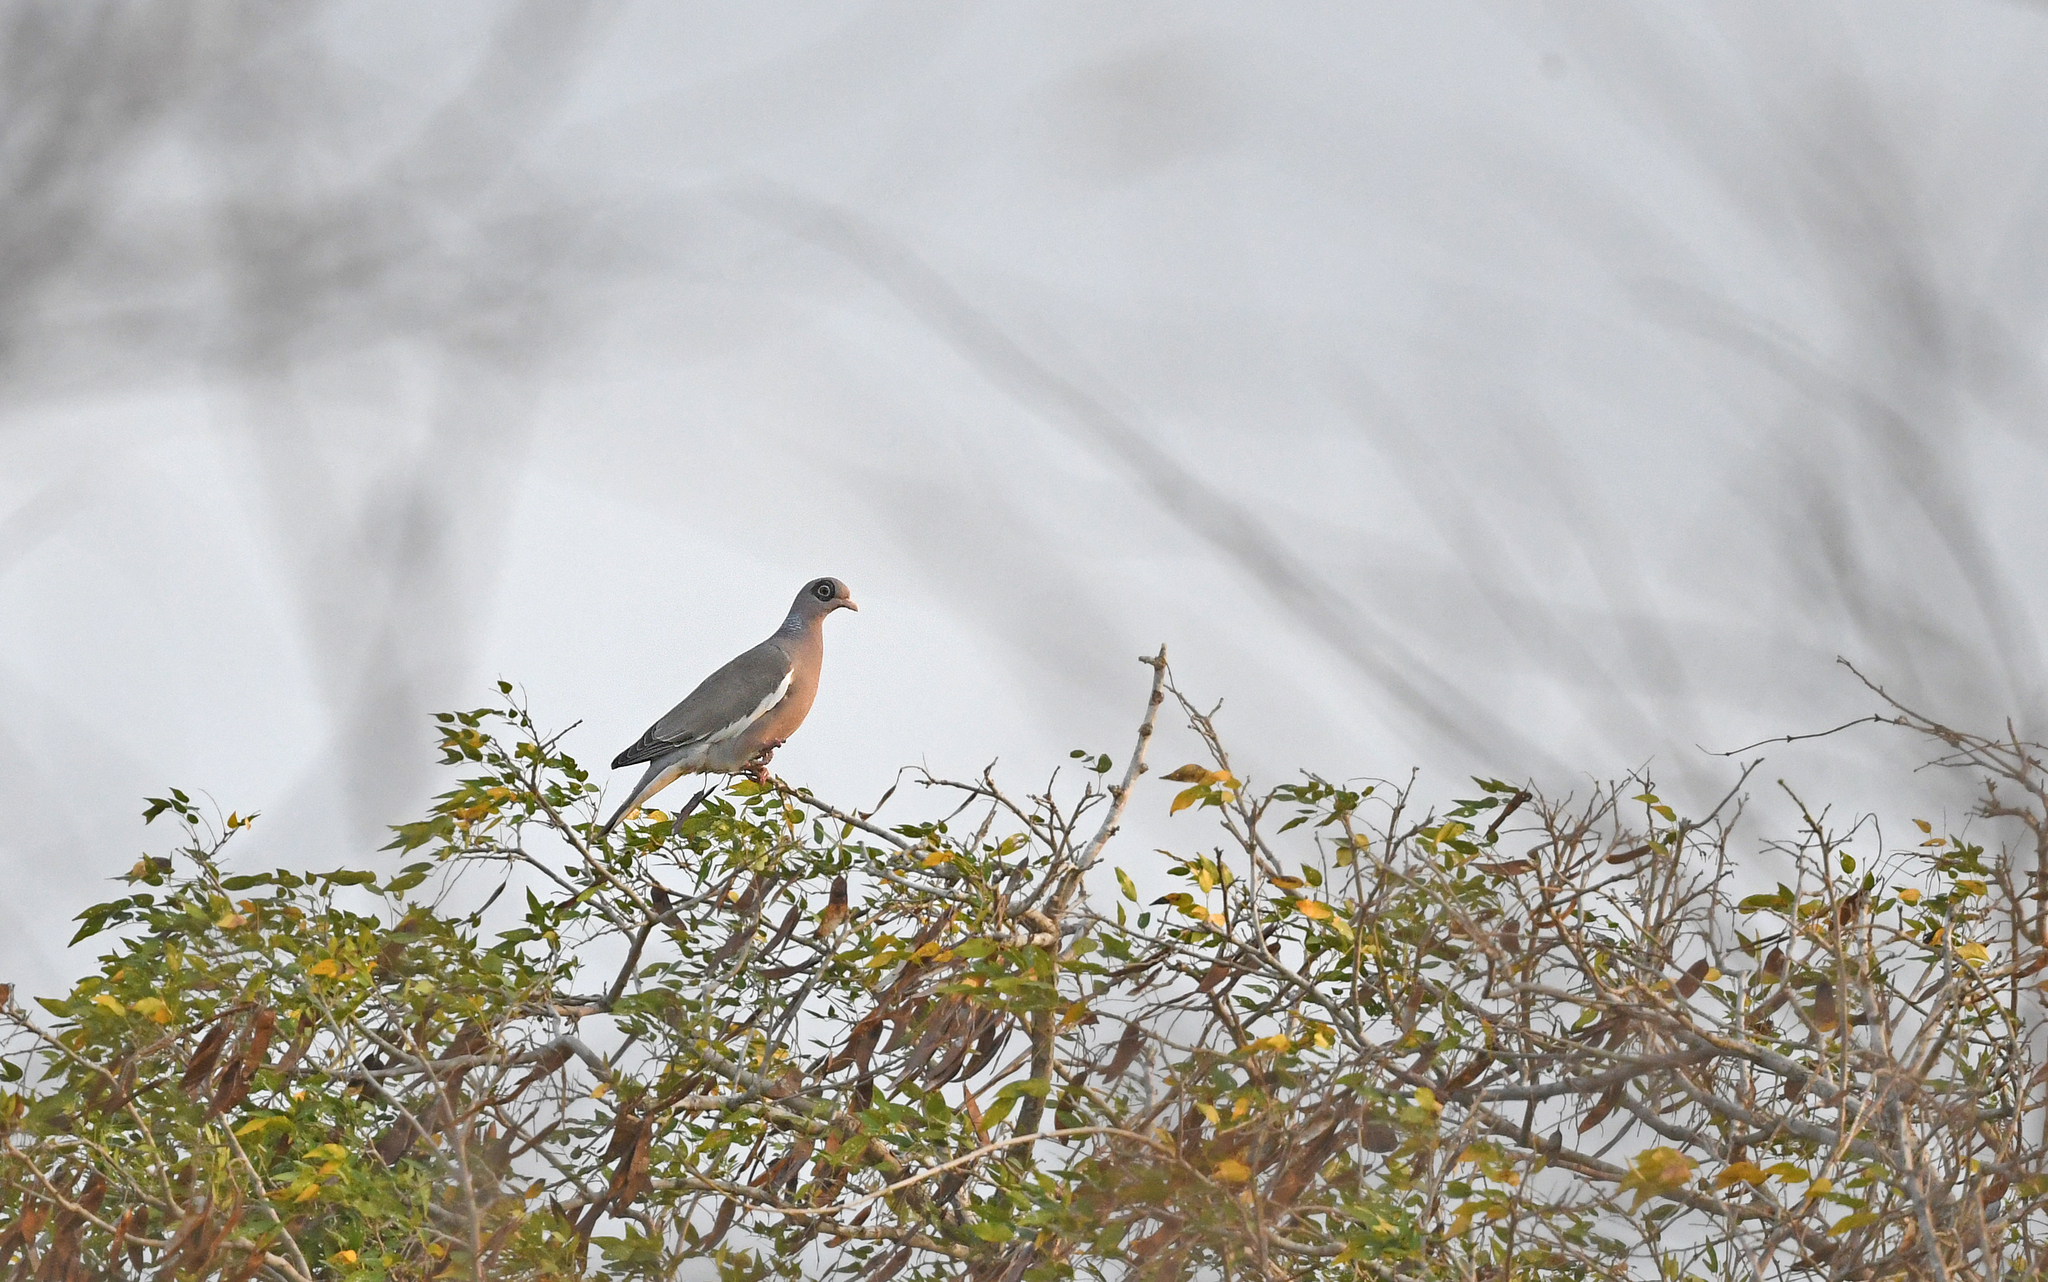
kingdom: Animalia
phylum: Chordata
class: Aves
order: Columbiformes
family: Columbidae
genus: Patagioenas
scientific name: Patagioenas corensis
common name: Bare-eyed pigeon
